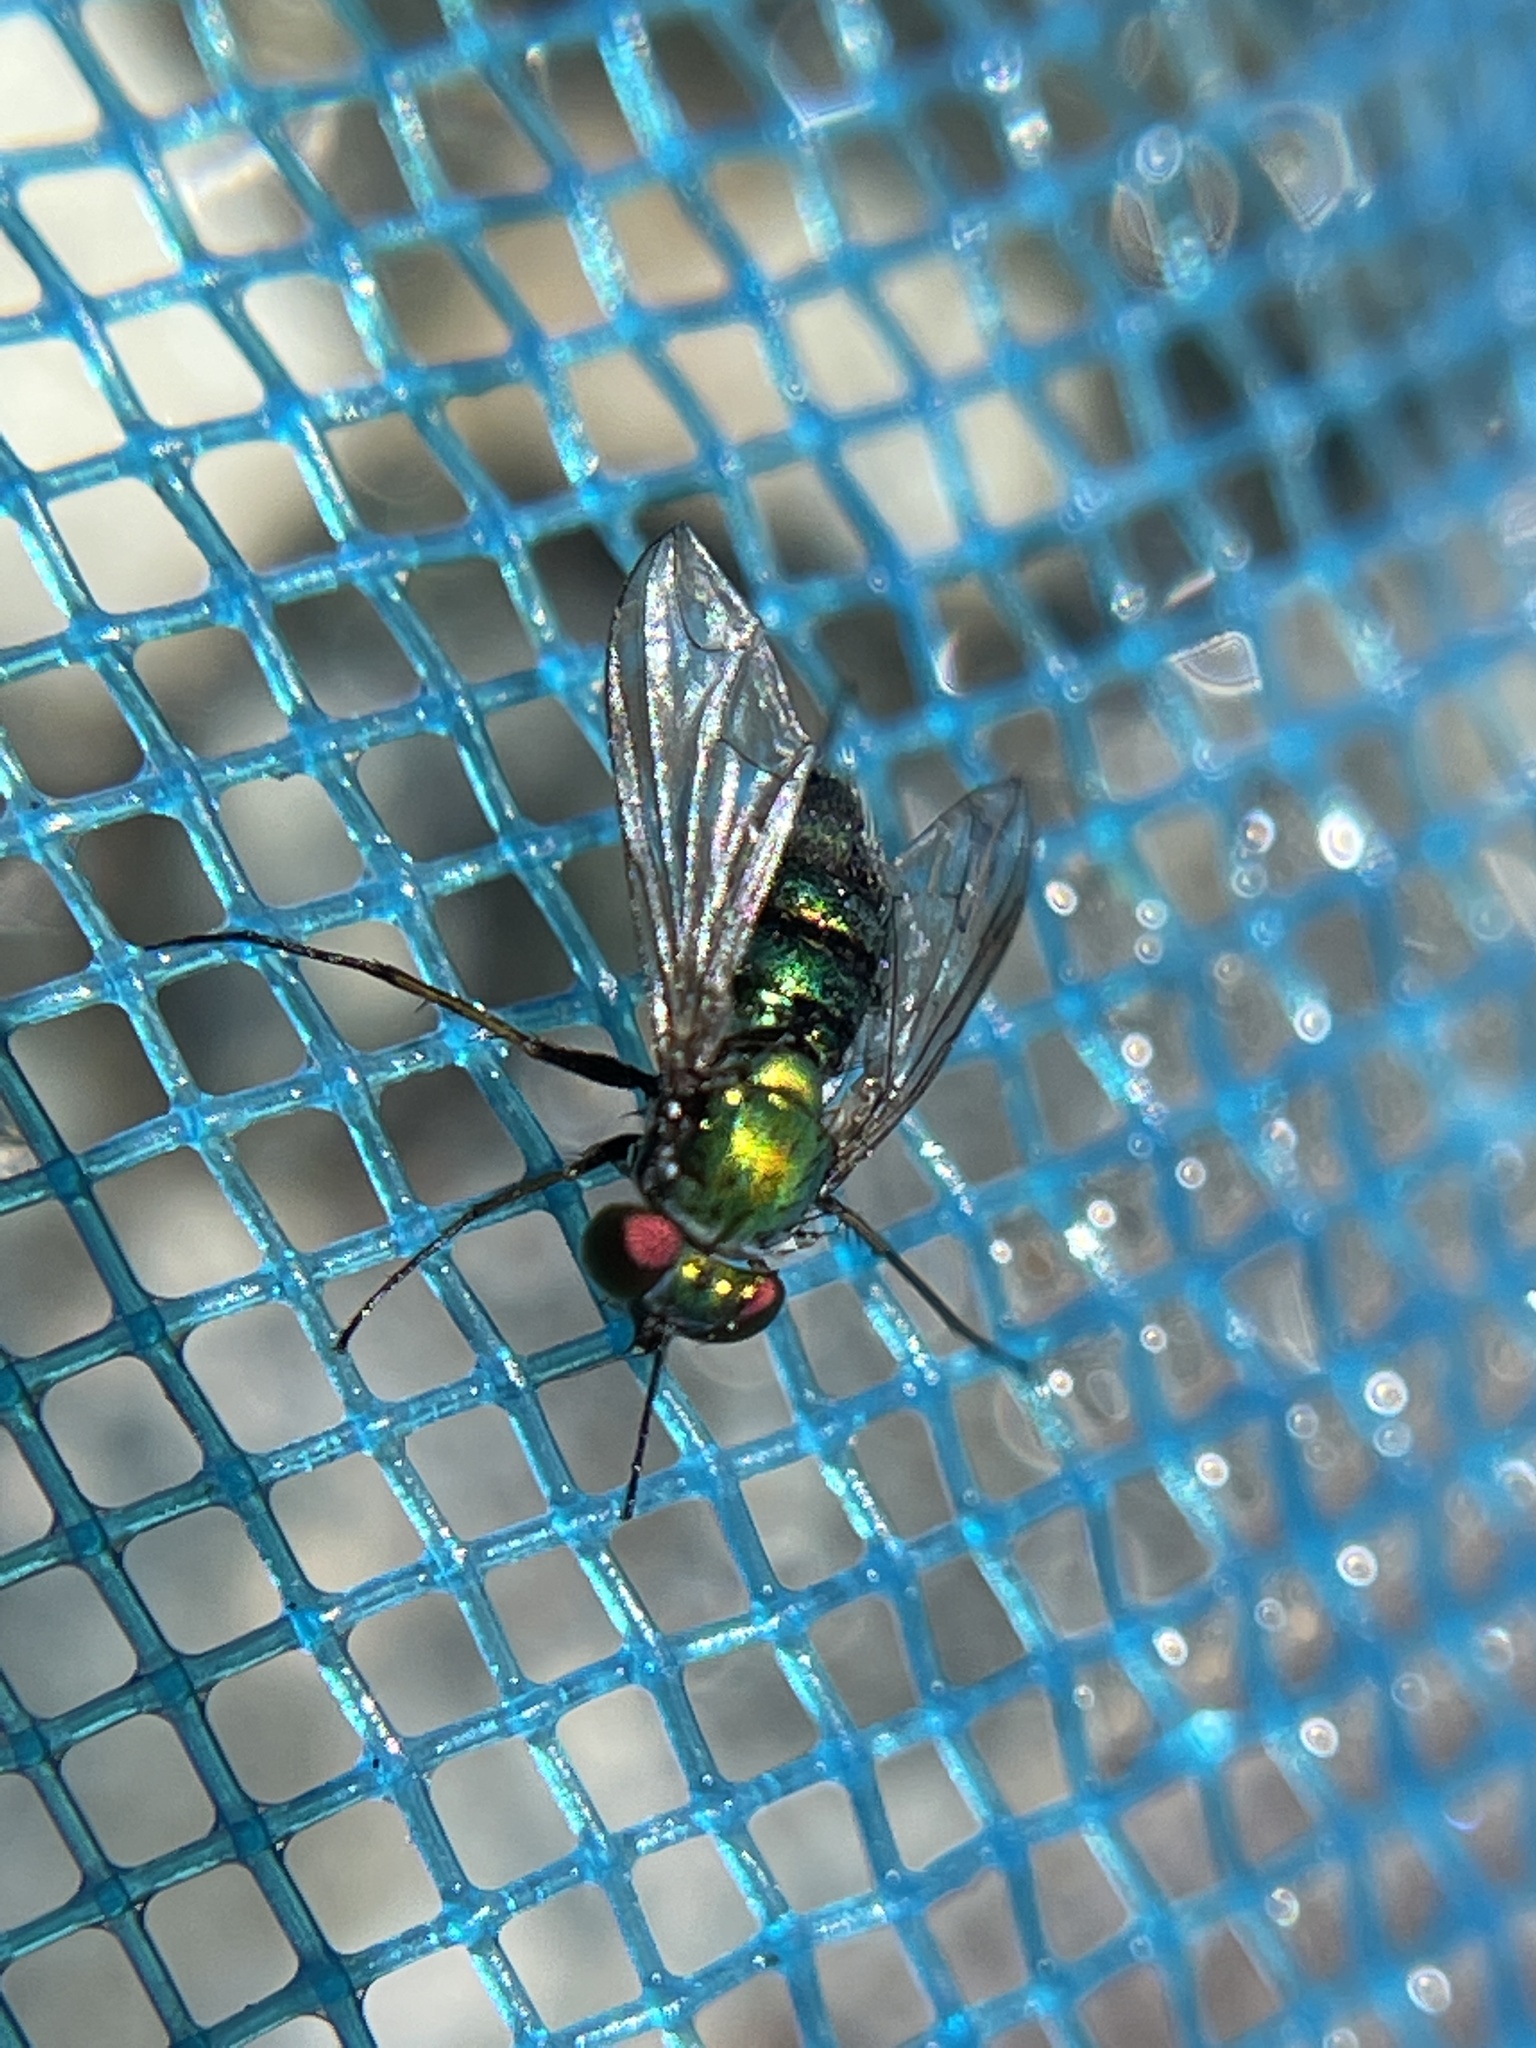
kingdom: Animalia
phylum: Arthropoda
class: Insecta
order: Diptera
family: Dolichopodidae
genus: Condylostylus
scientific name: Condylostylus longicornis
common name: Long-legged fly
